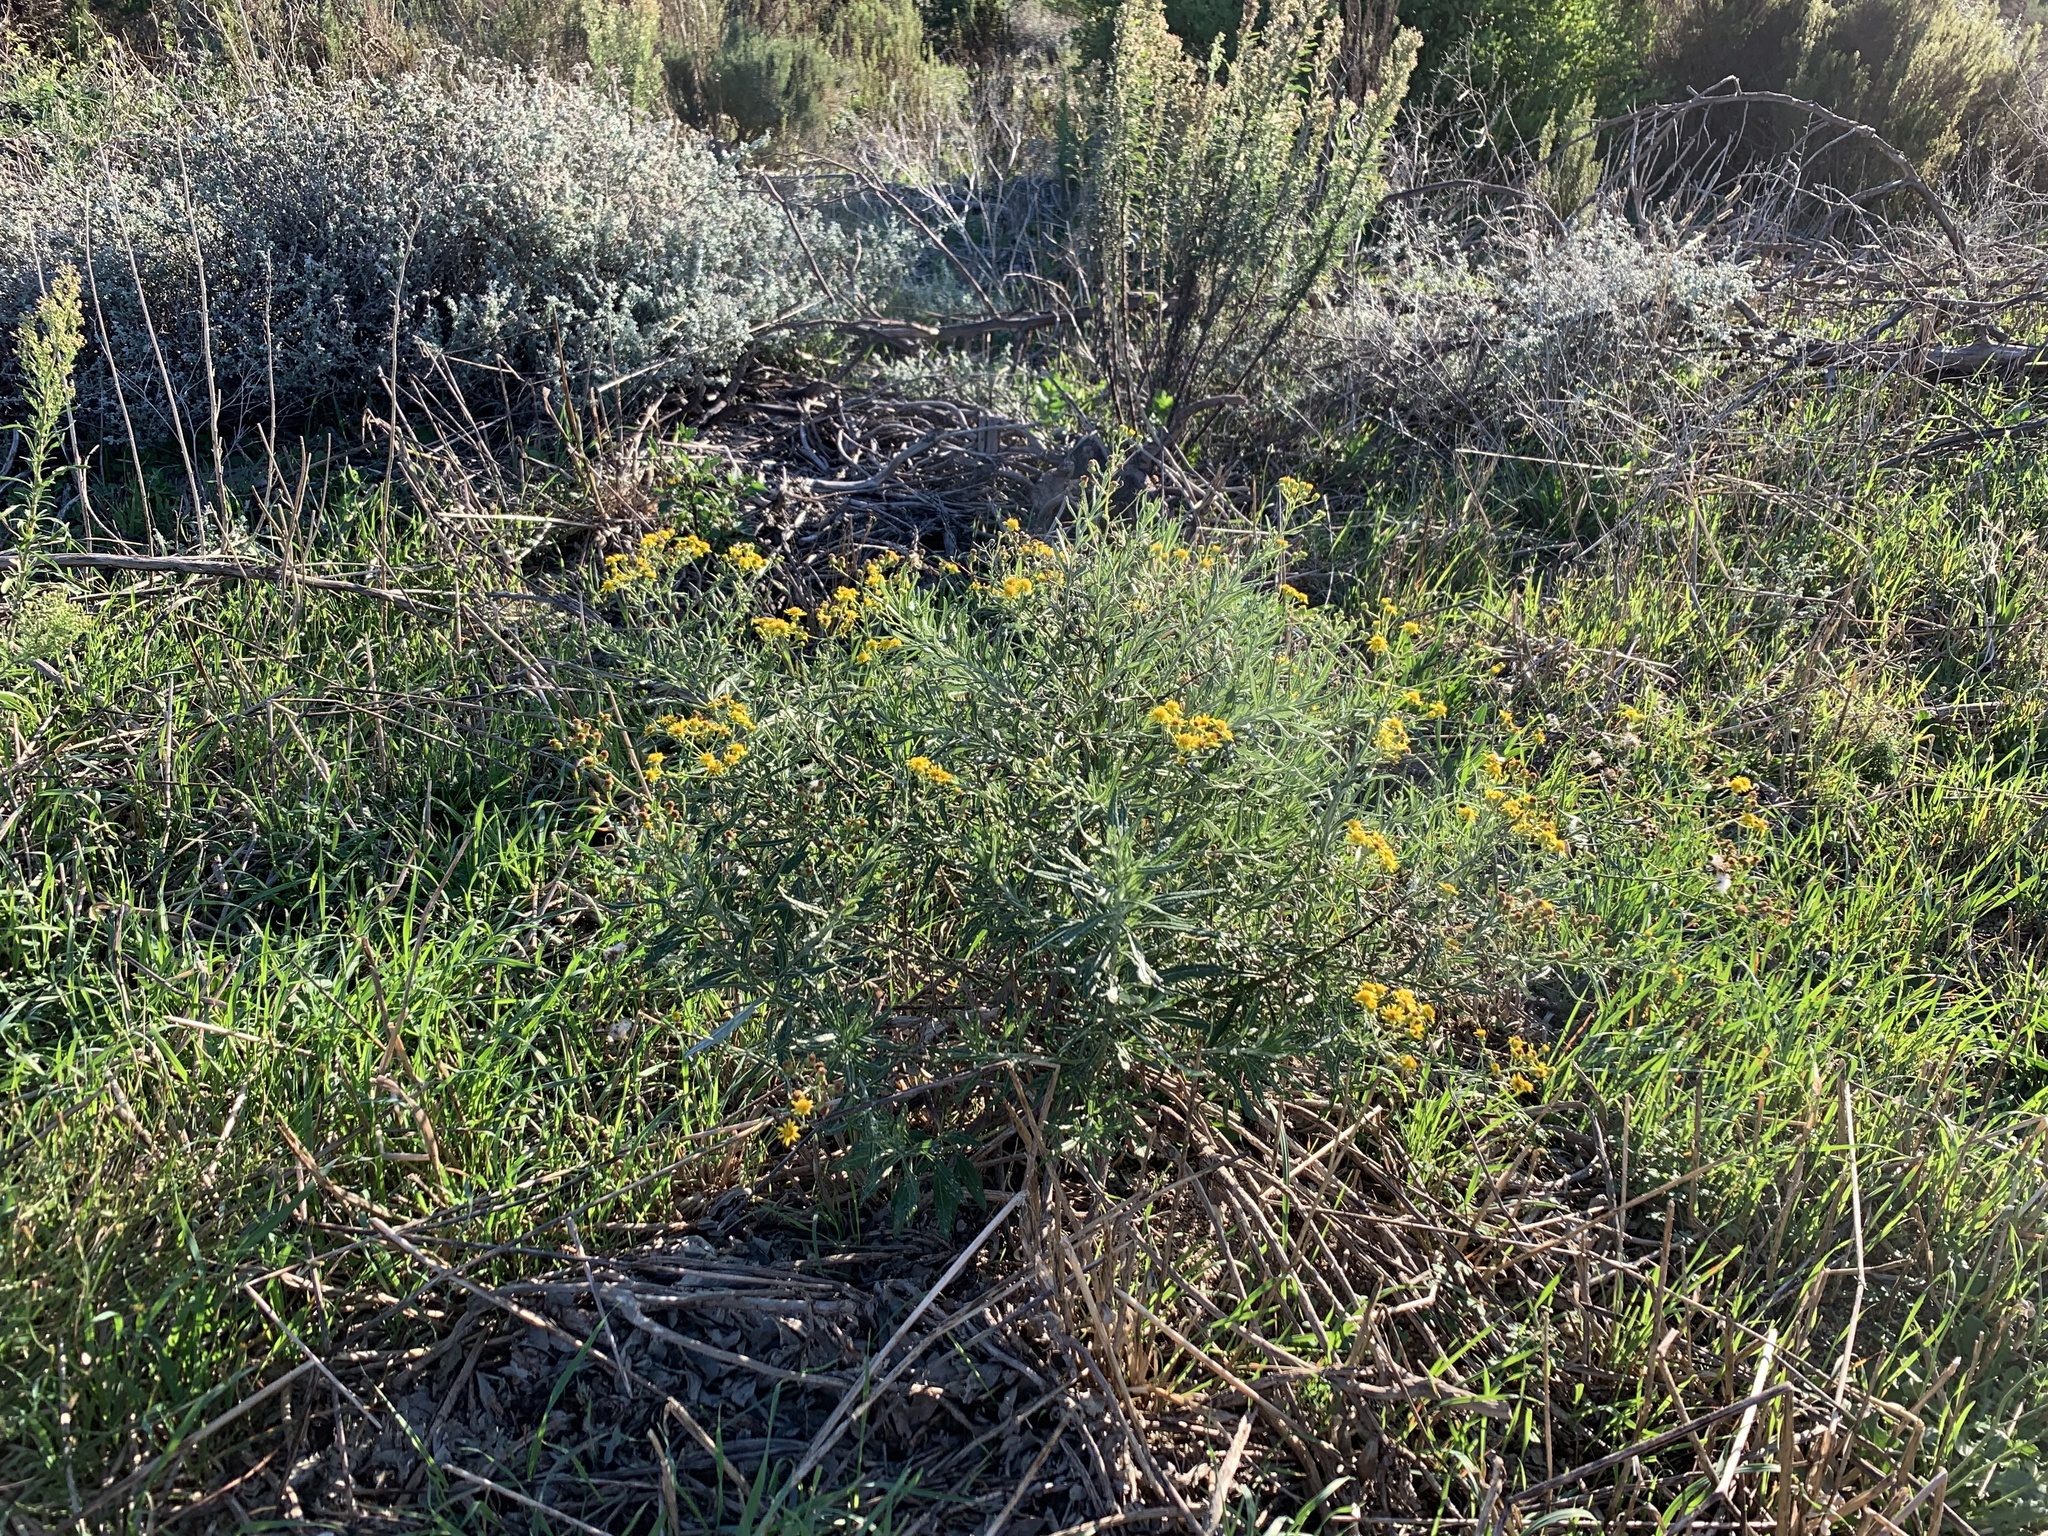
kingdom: Plantae
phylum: Tracheophyta
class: Magnoliopsida
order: Asterales
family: Asteraceae
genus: Senecio
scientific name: Senecio pterophorus
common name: Shoddy ragwort
